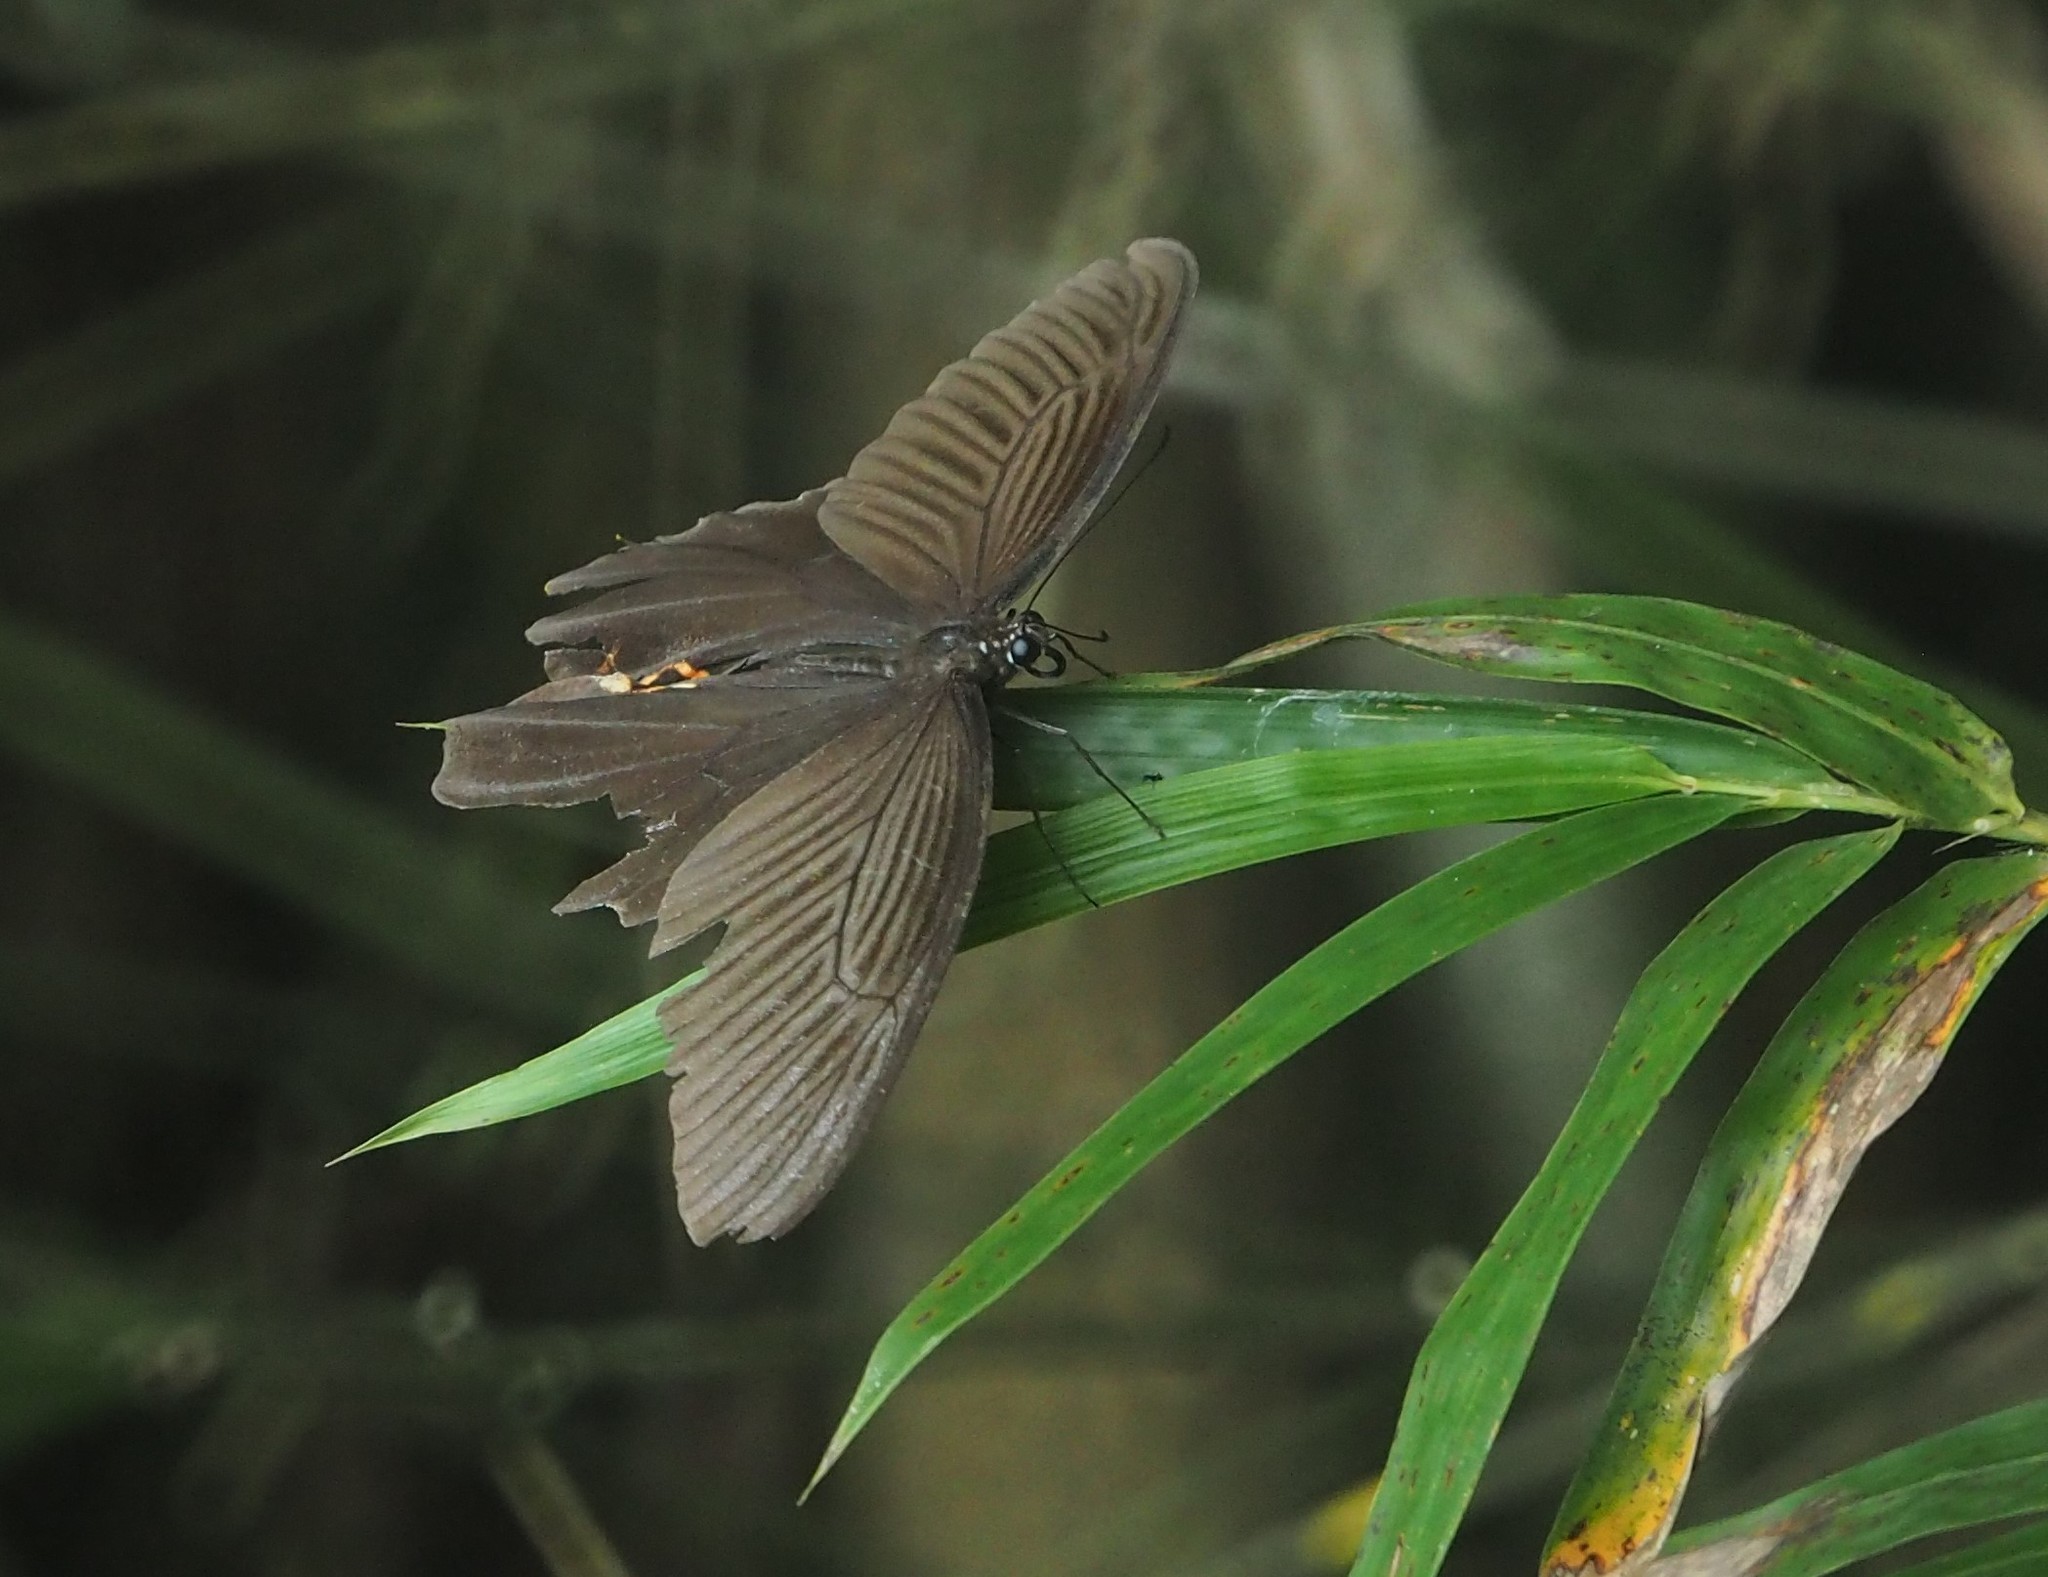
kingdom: Animalia
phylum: Arthropoda
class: Insecta
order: Lepidoptera
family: Papilionidae
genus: Papilio
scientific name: Papilio protenor
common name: Spangle
